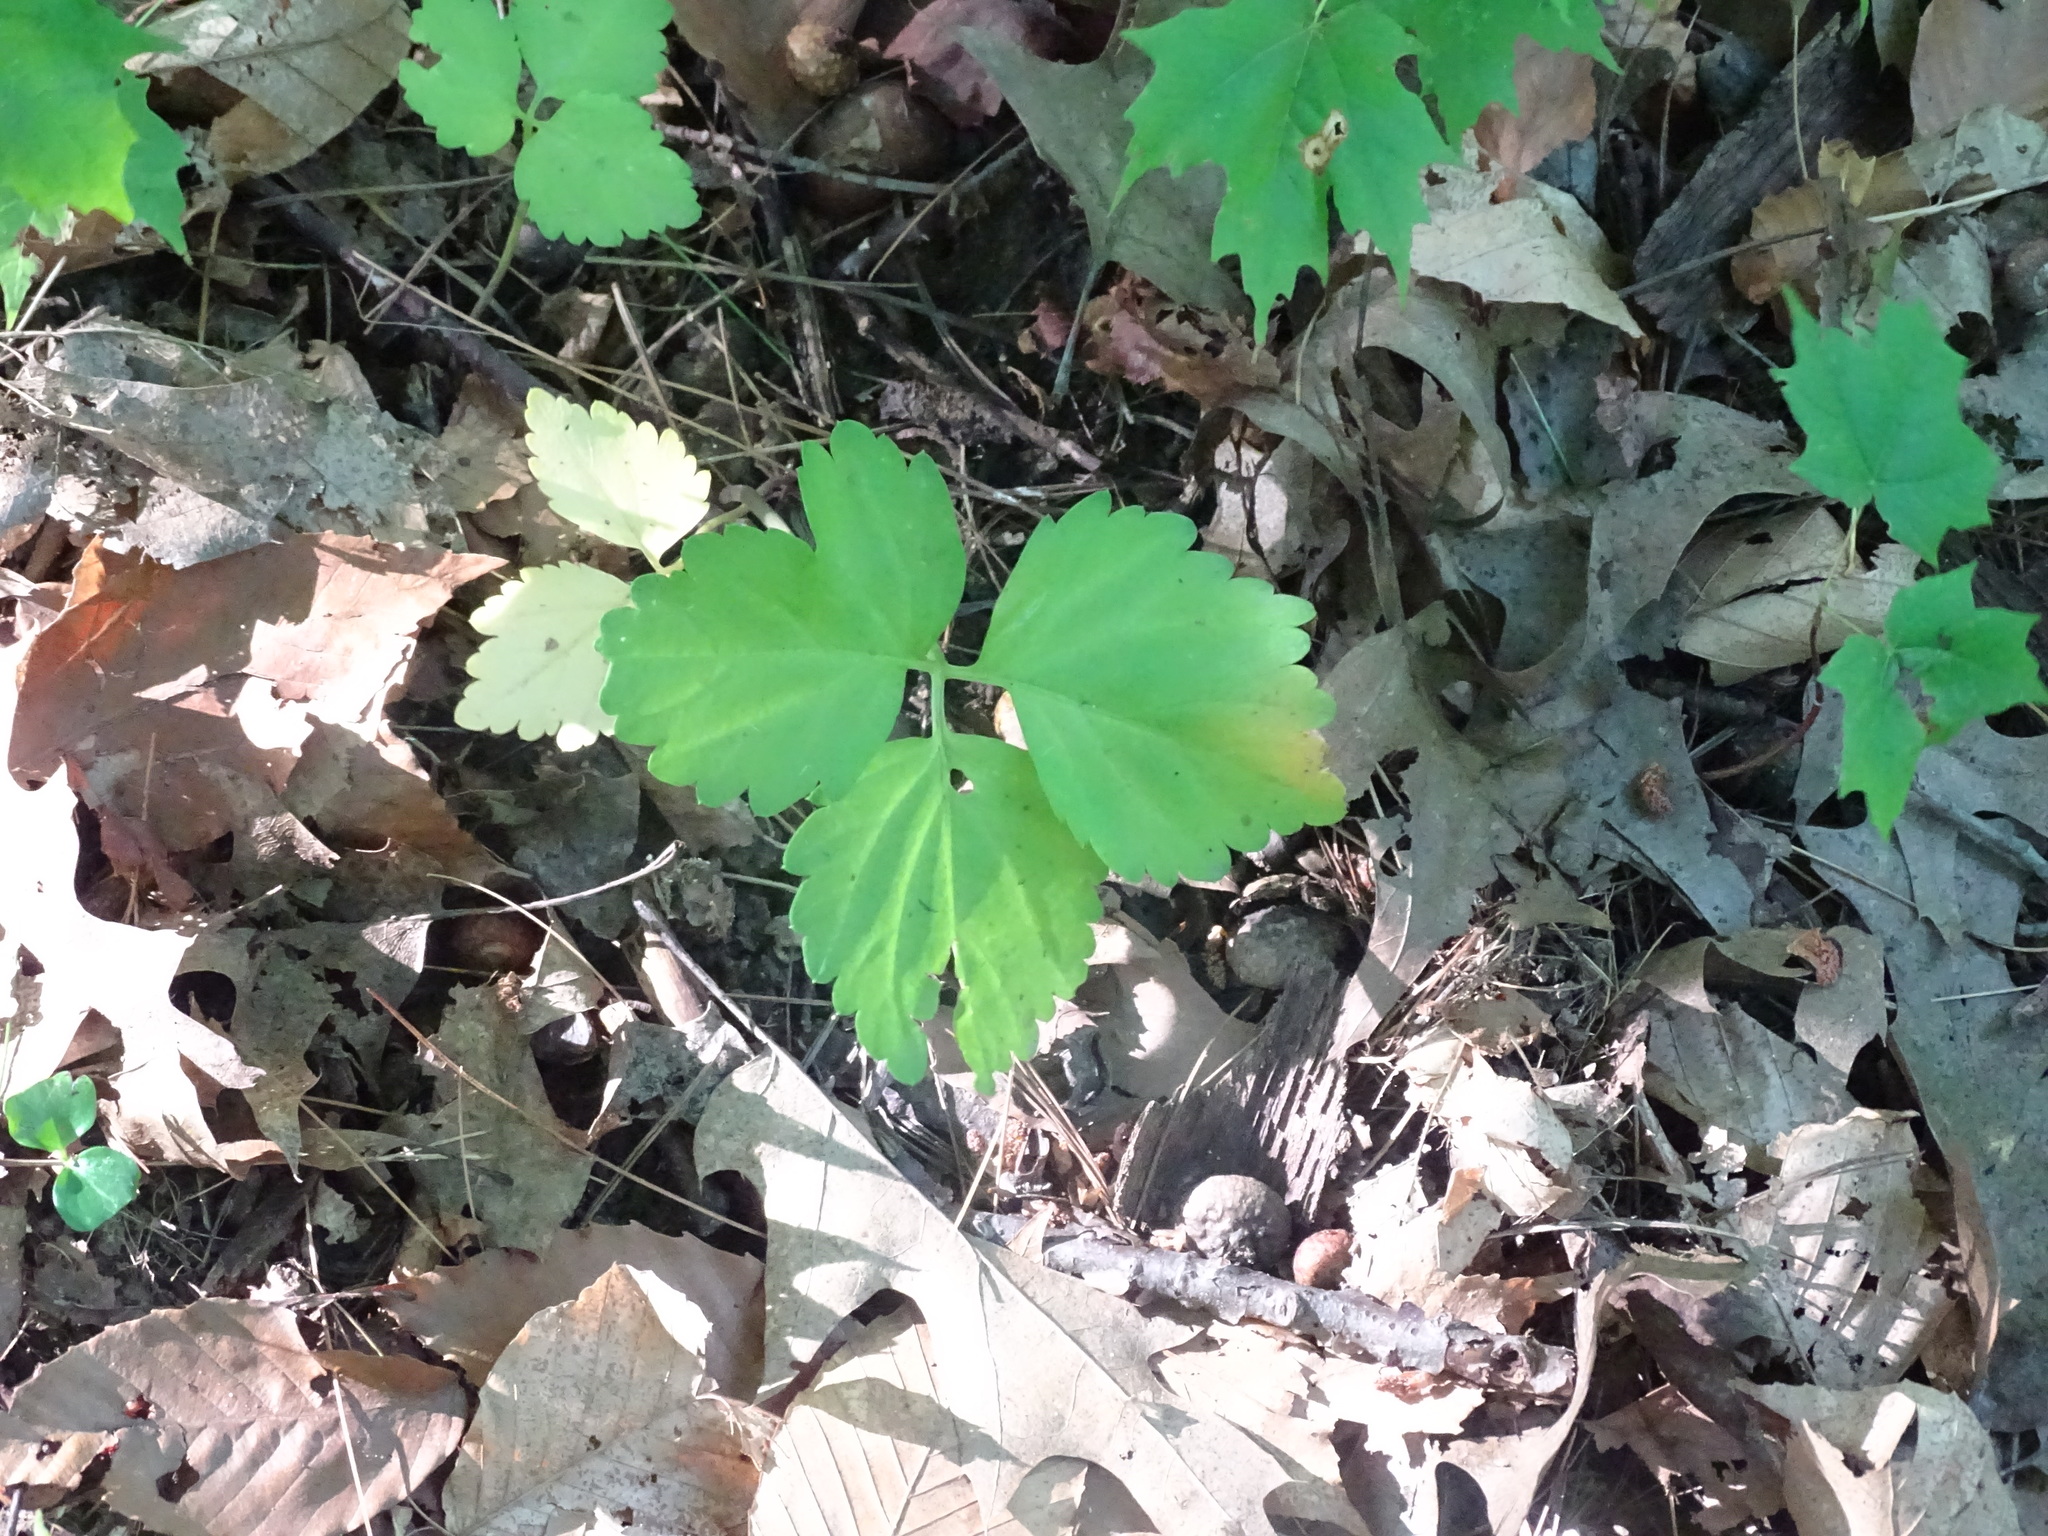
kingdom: Plantae
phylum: Tracheophyta
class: Magnoliopsida
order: Brassicales
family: Brassicaceae
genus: Cardamine
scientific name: Cardamine diphylla
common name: Broad-leaved toothwort
